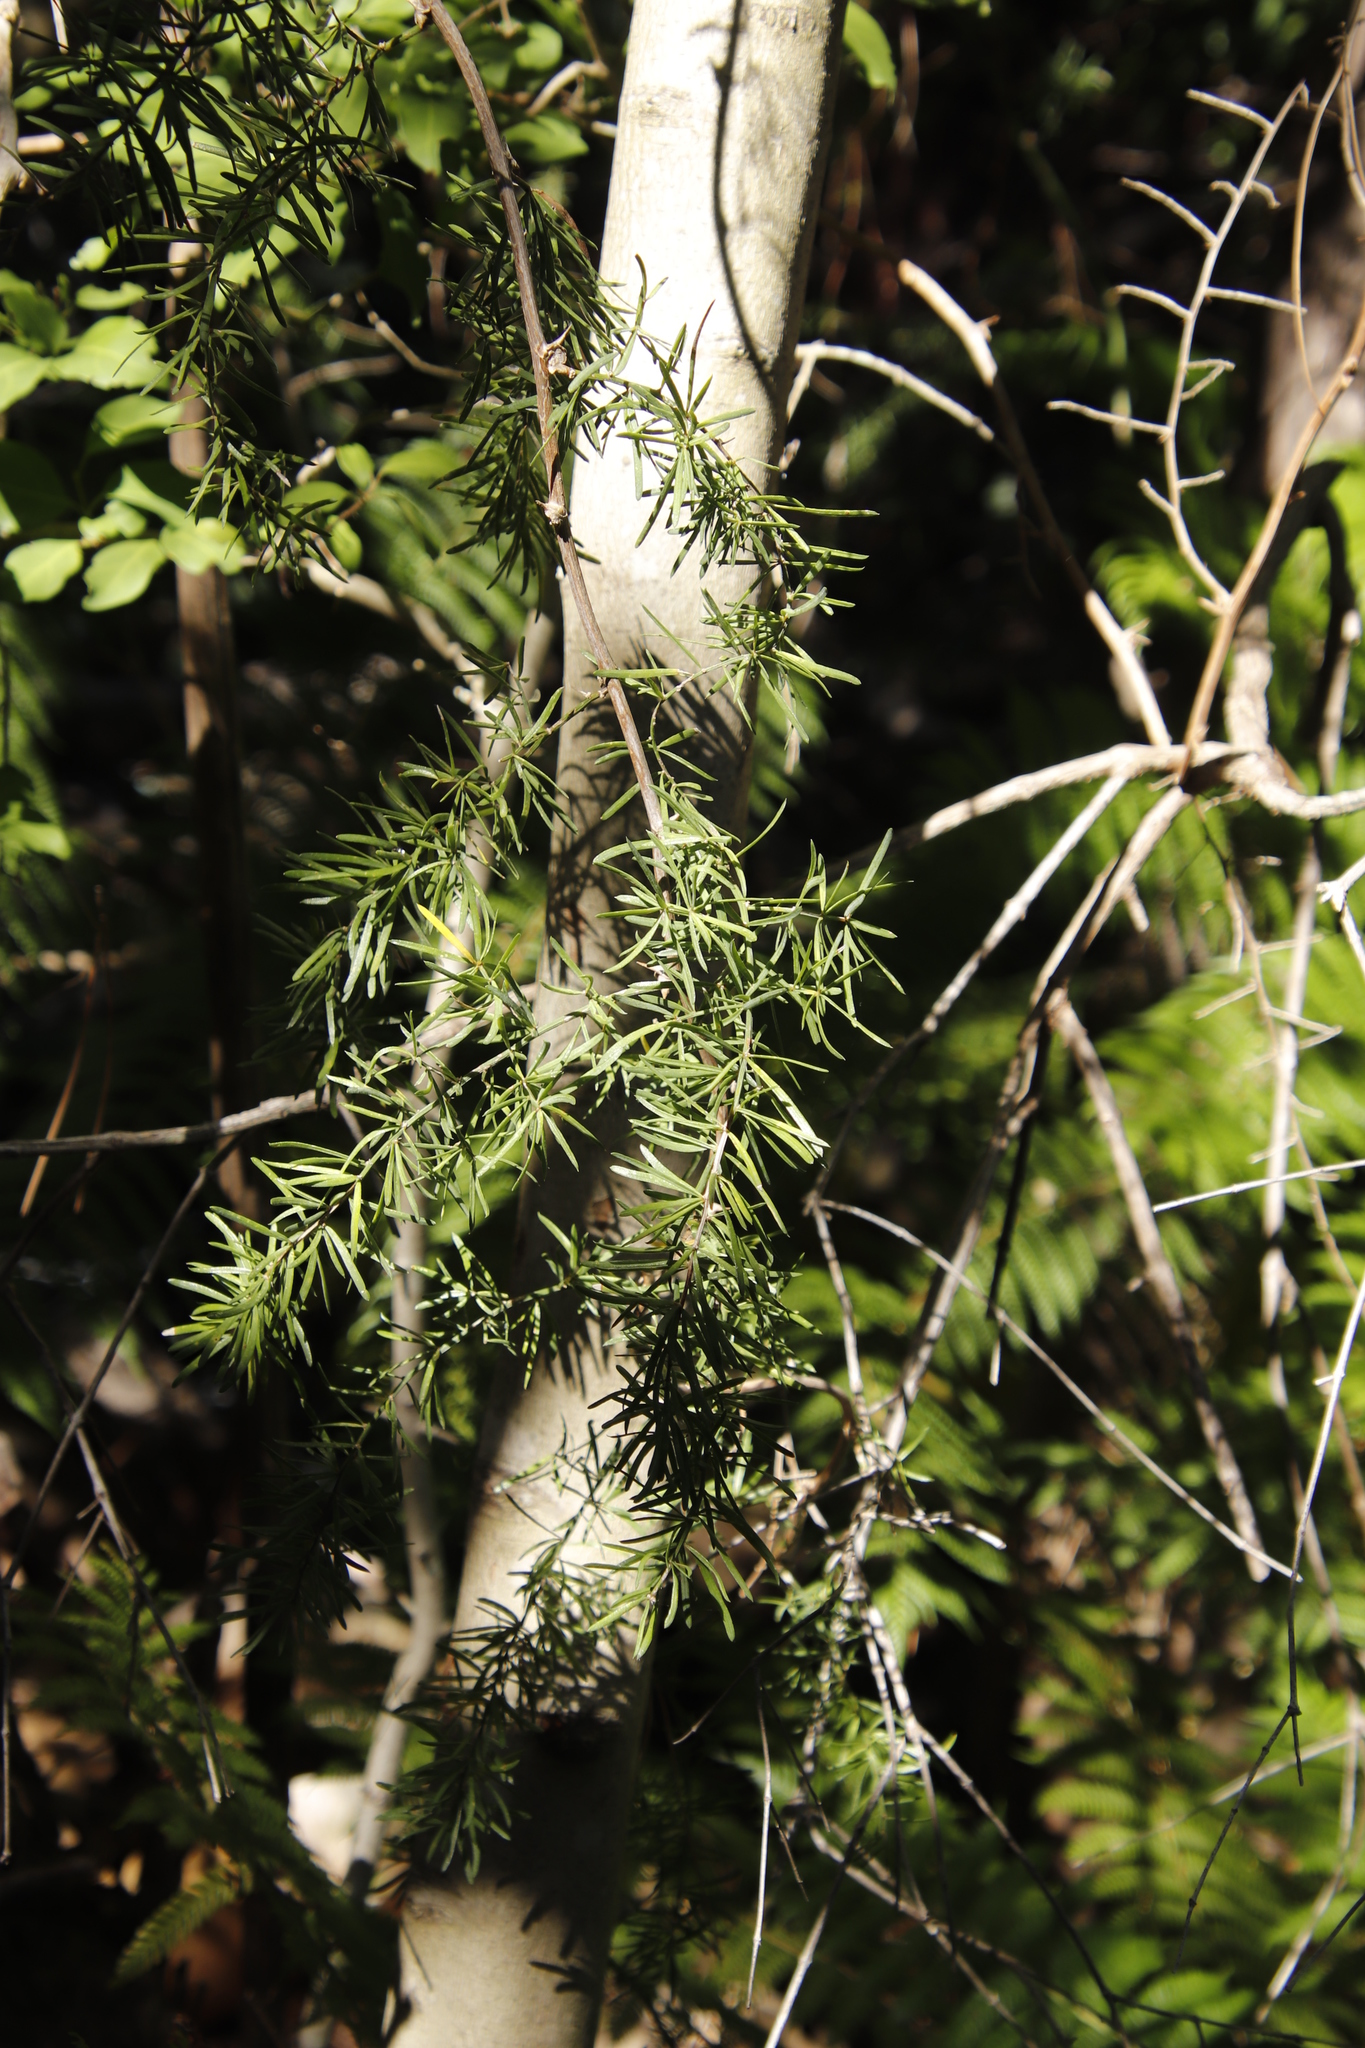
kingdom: Plantae
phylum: Tracheophyta
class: Liliopsida
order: Asparagales
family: Asparagaceae
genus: Asparagus
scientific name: Asparagus aethiopicus
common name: Sprenger's asparagus fern
